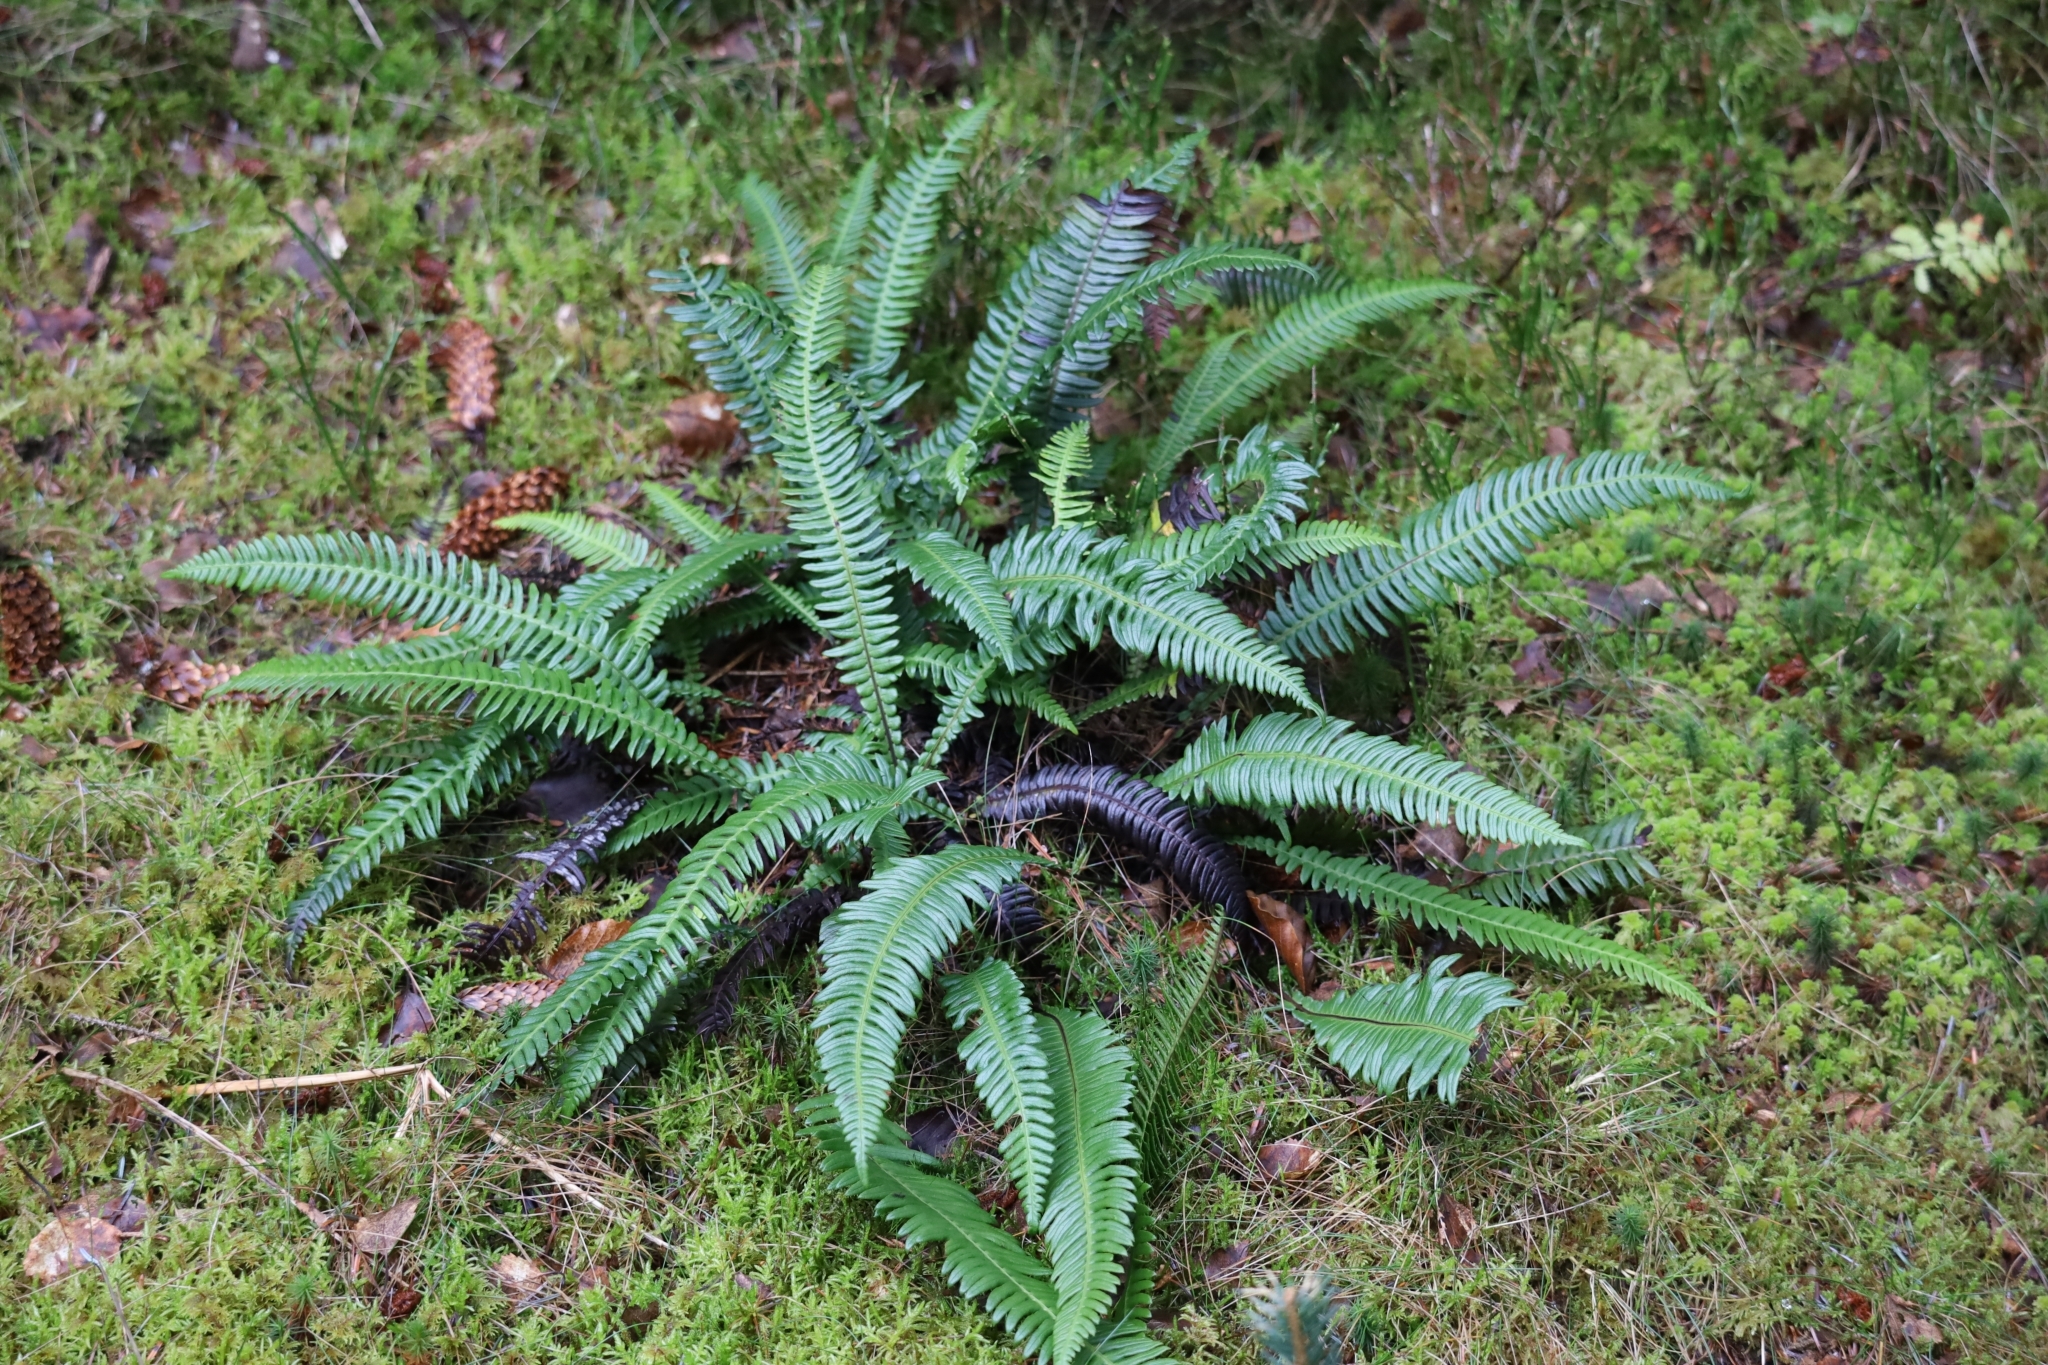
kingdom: Plantae
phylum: Tracheophyta
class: Polypodiopsida
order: Polypodiales
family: Blechnaceae
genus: Struthiopteris
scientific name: Struthiopteris spicant
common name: Deer fern
